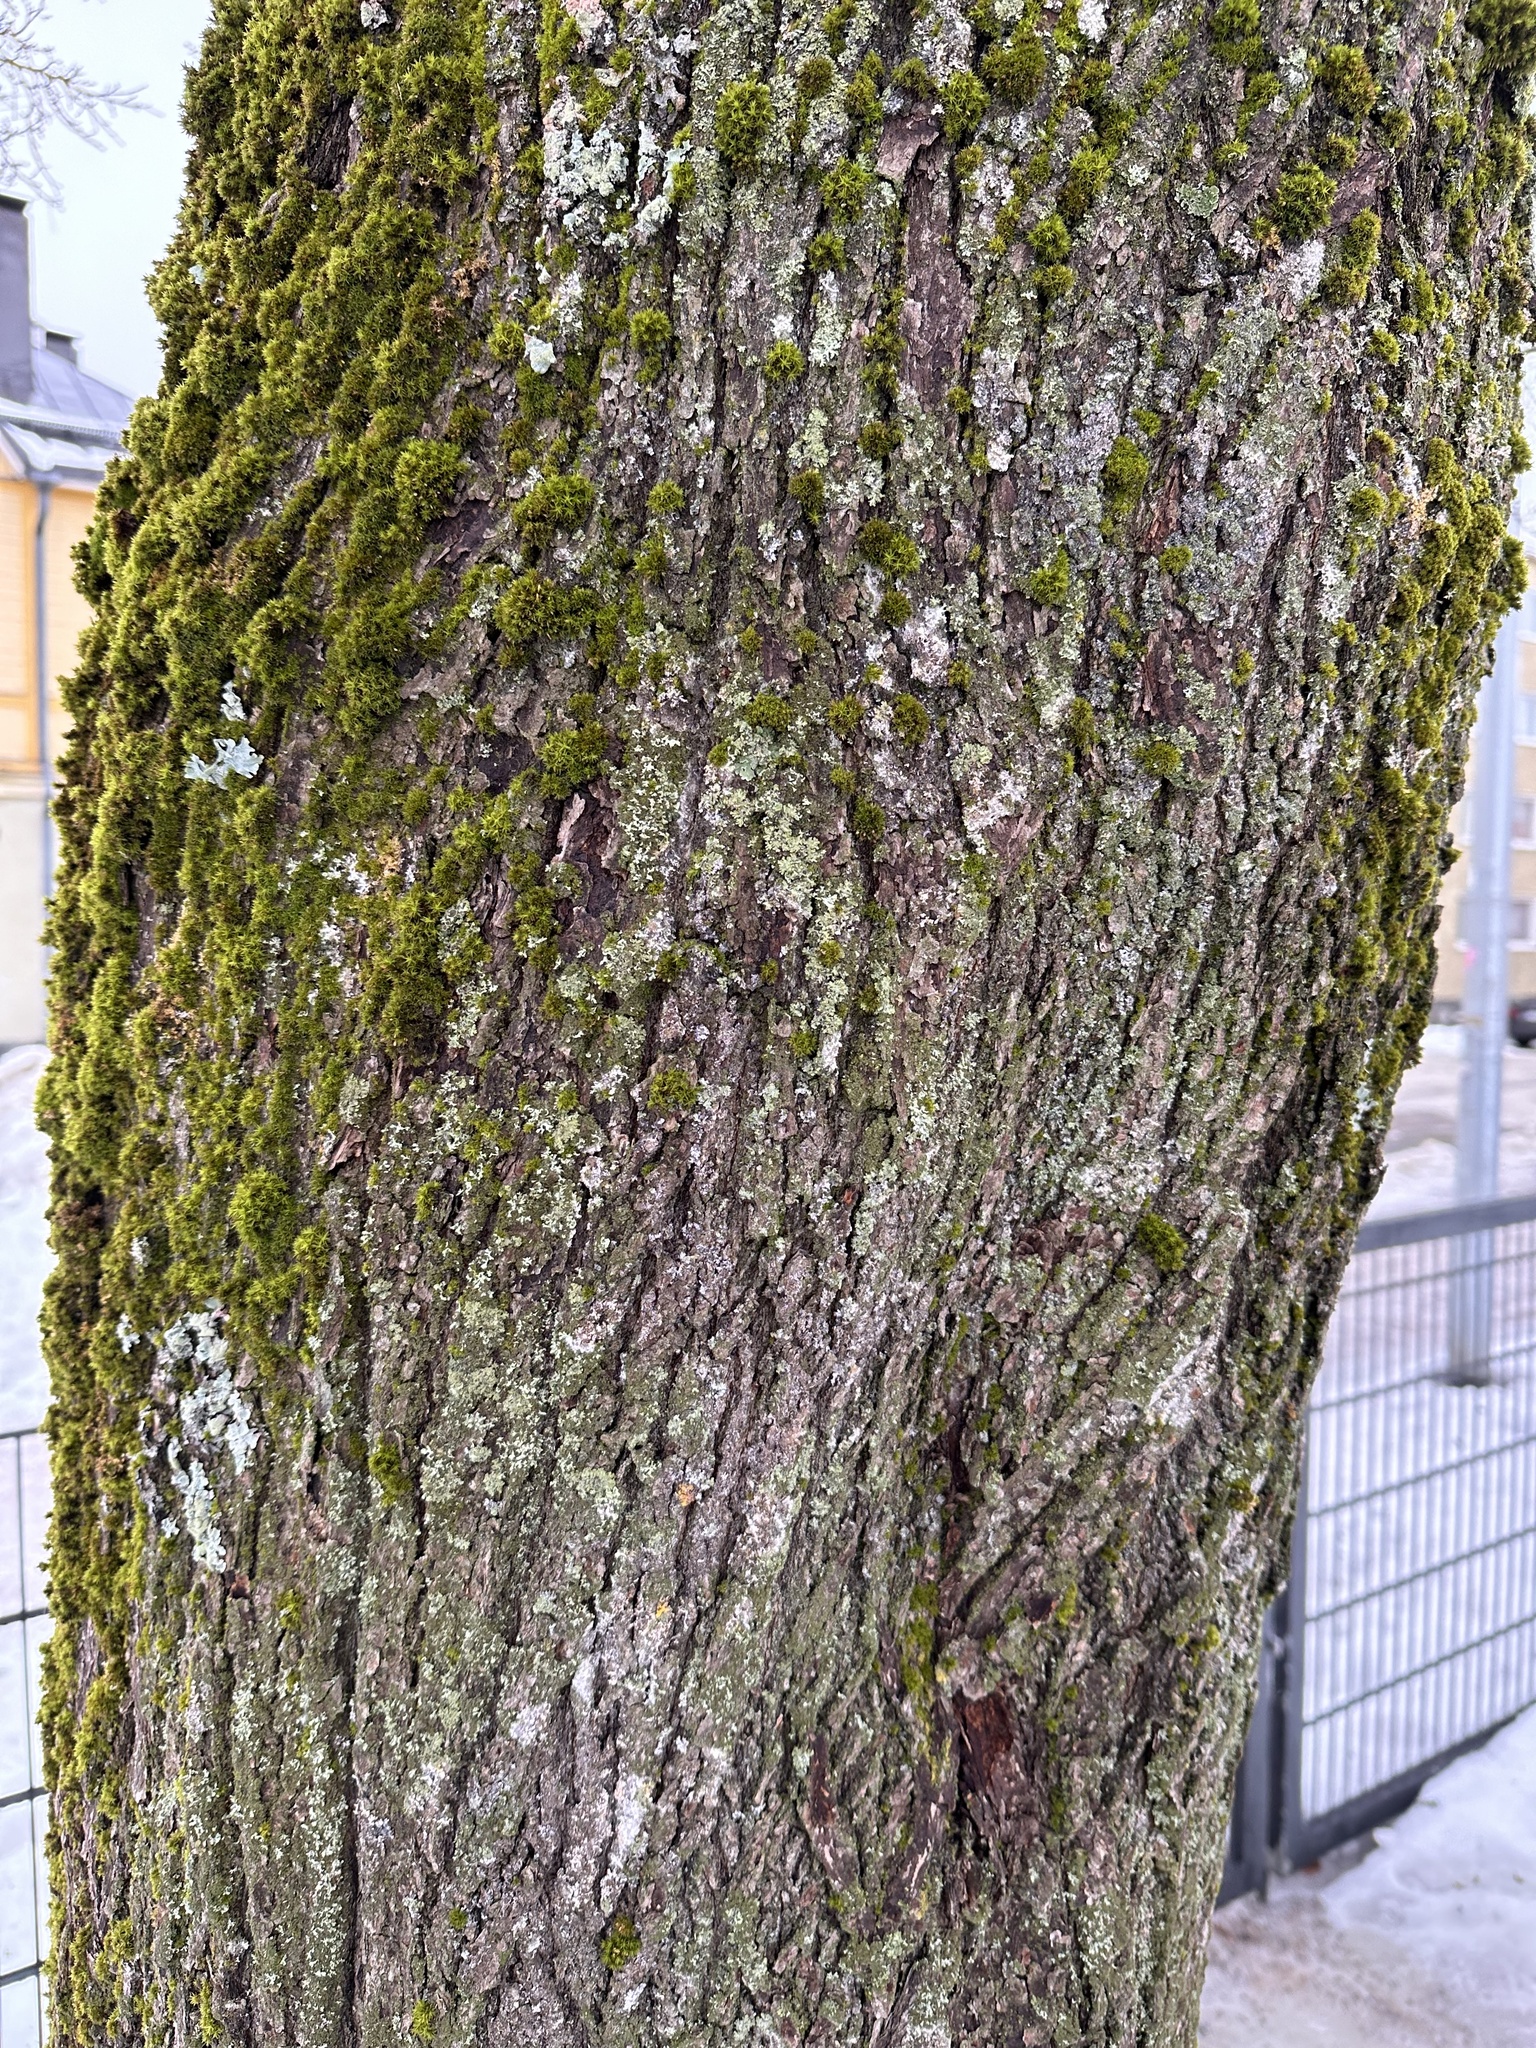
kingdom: Plantae
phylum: Tracheophyta
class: Magnoliopsida
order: Sapindales
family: Sapindaceae
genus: Acer
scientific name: Acer platanoides
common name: Norway maple
